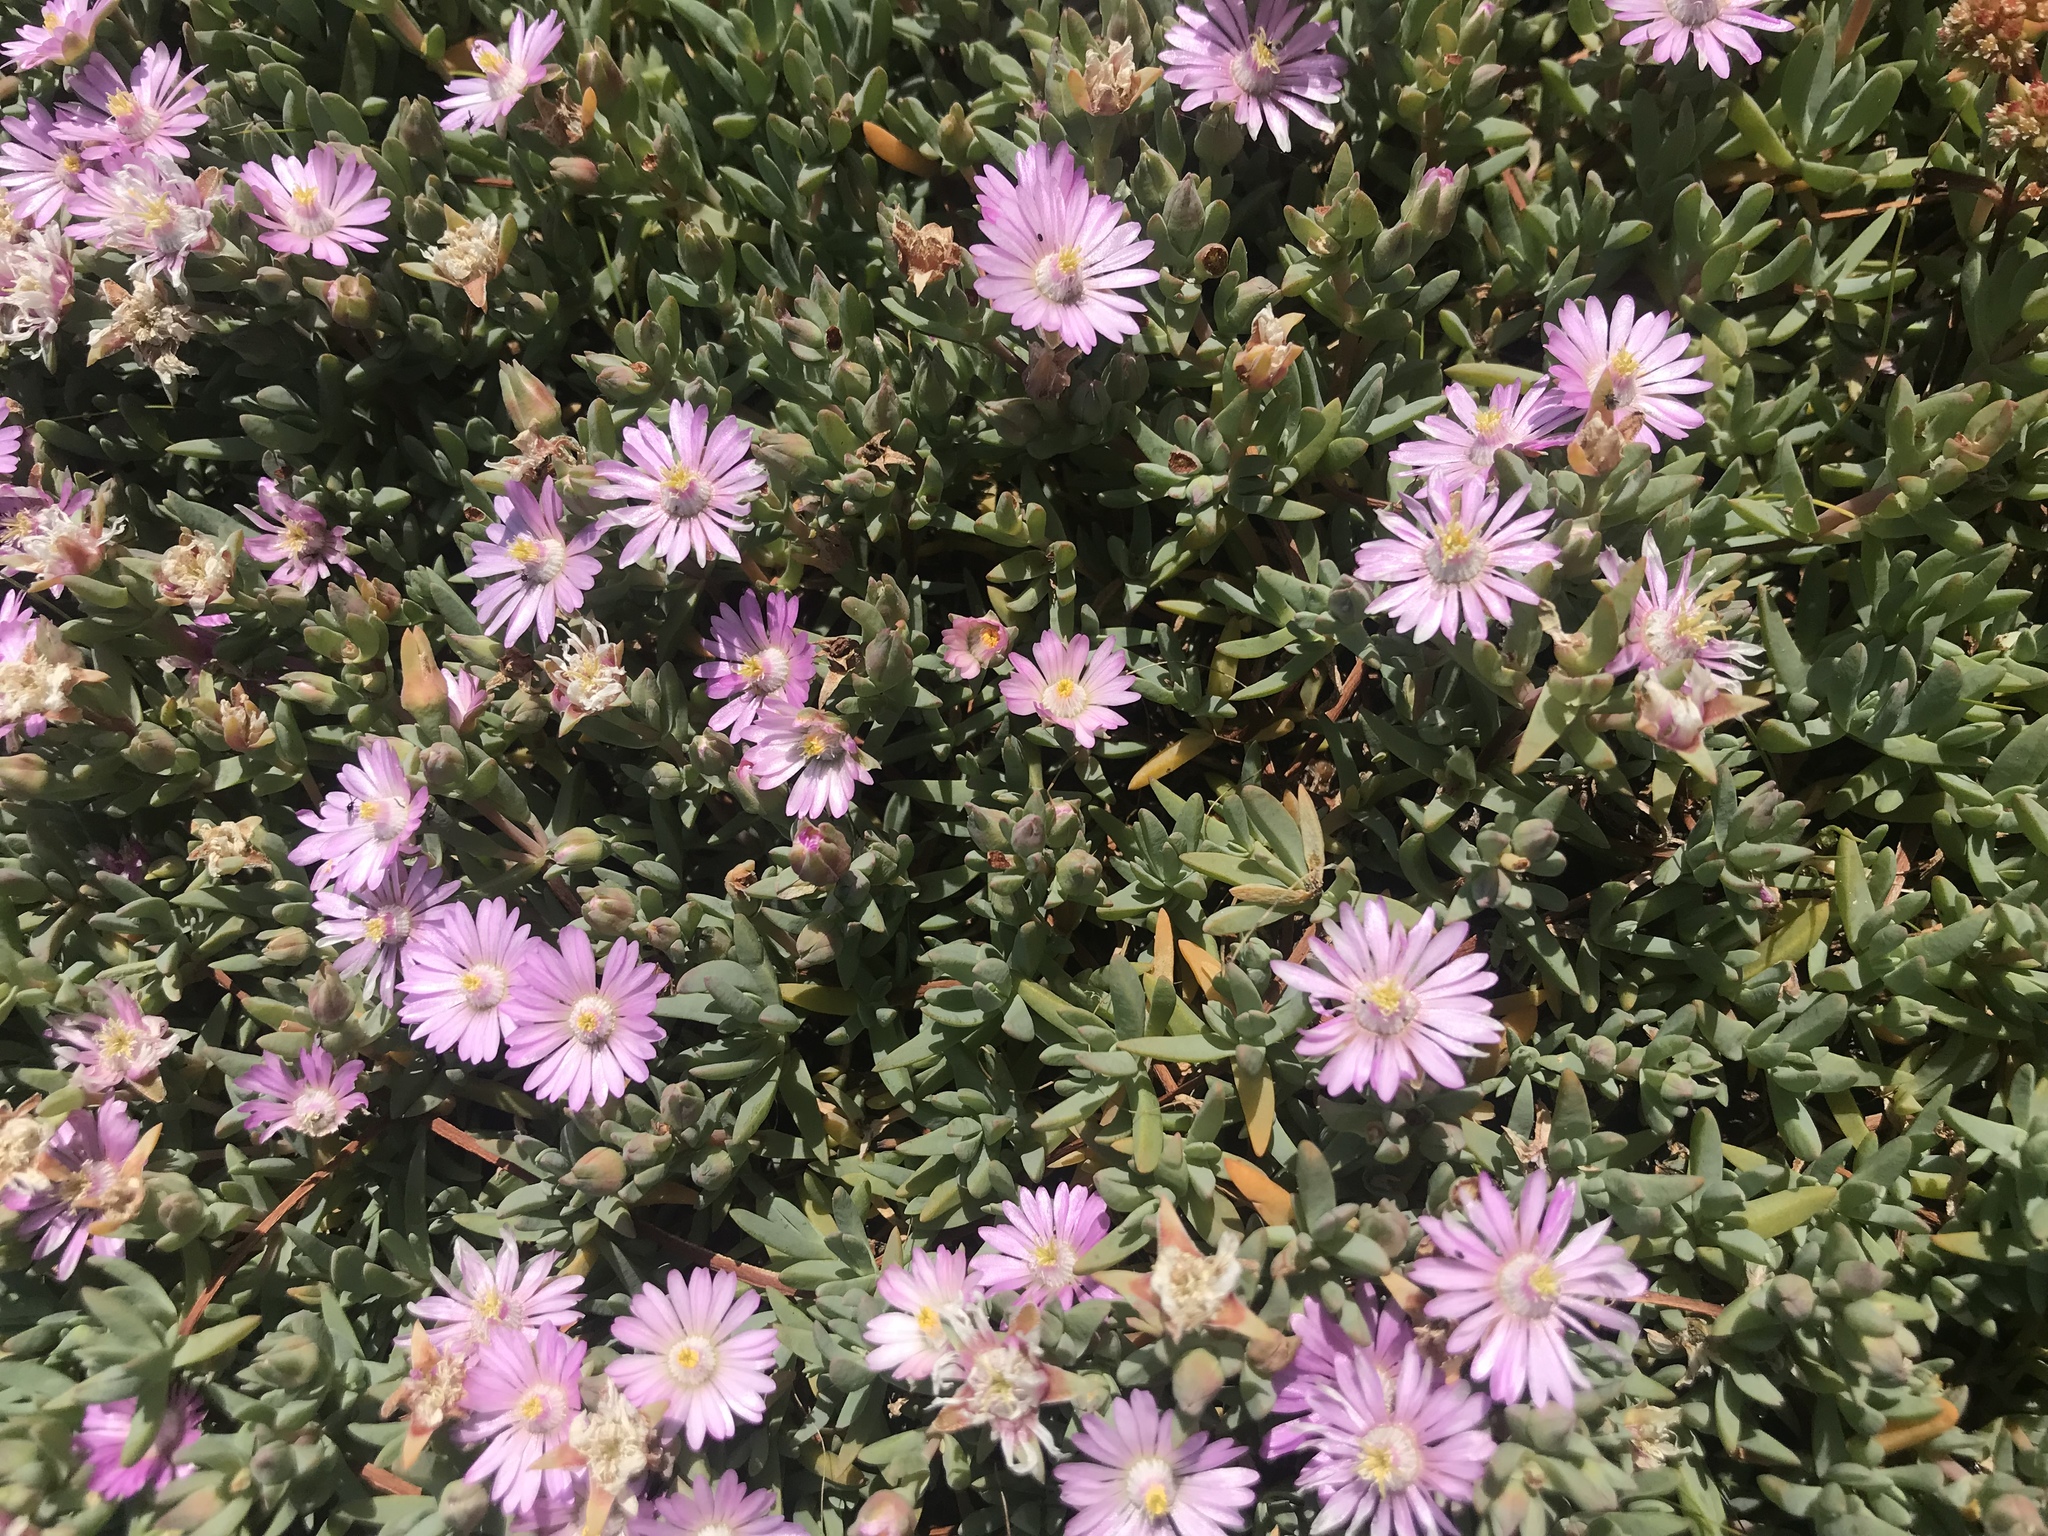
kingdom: Plantae
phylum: Tracheophyta
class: Magnoliopsida
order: Caryophyllales
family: Aizoaceae
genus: Lampranthus
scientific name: Lampranthus debilis
